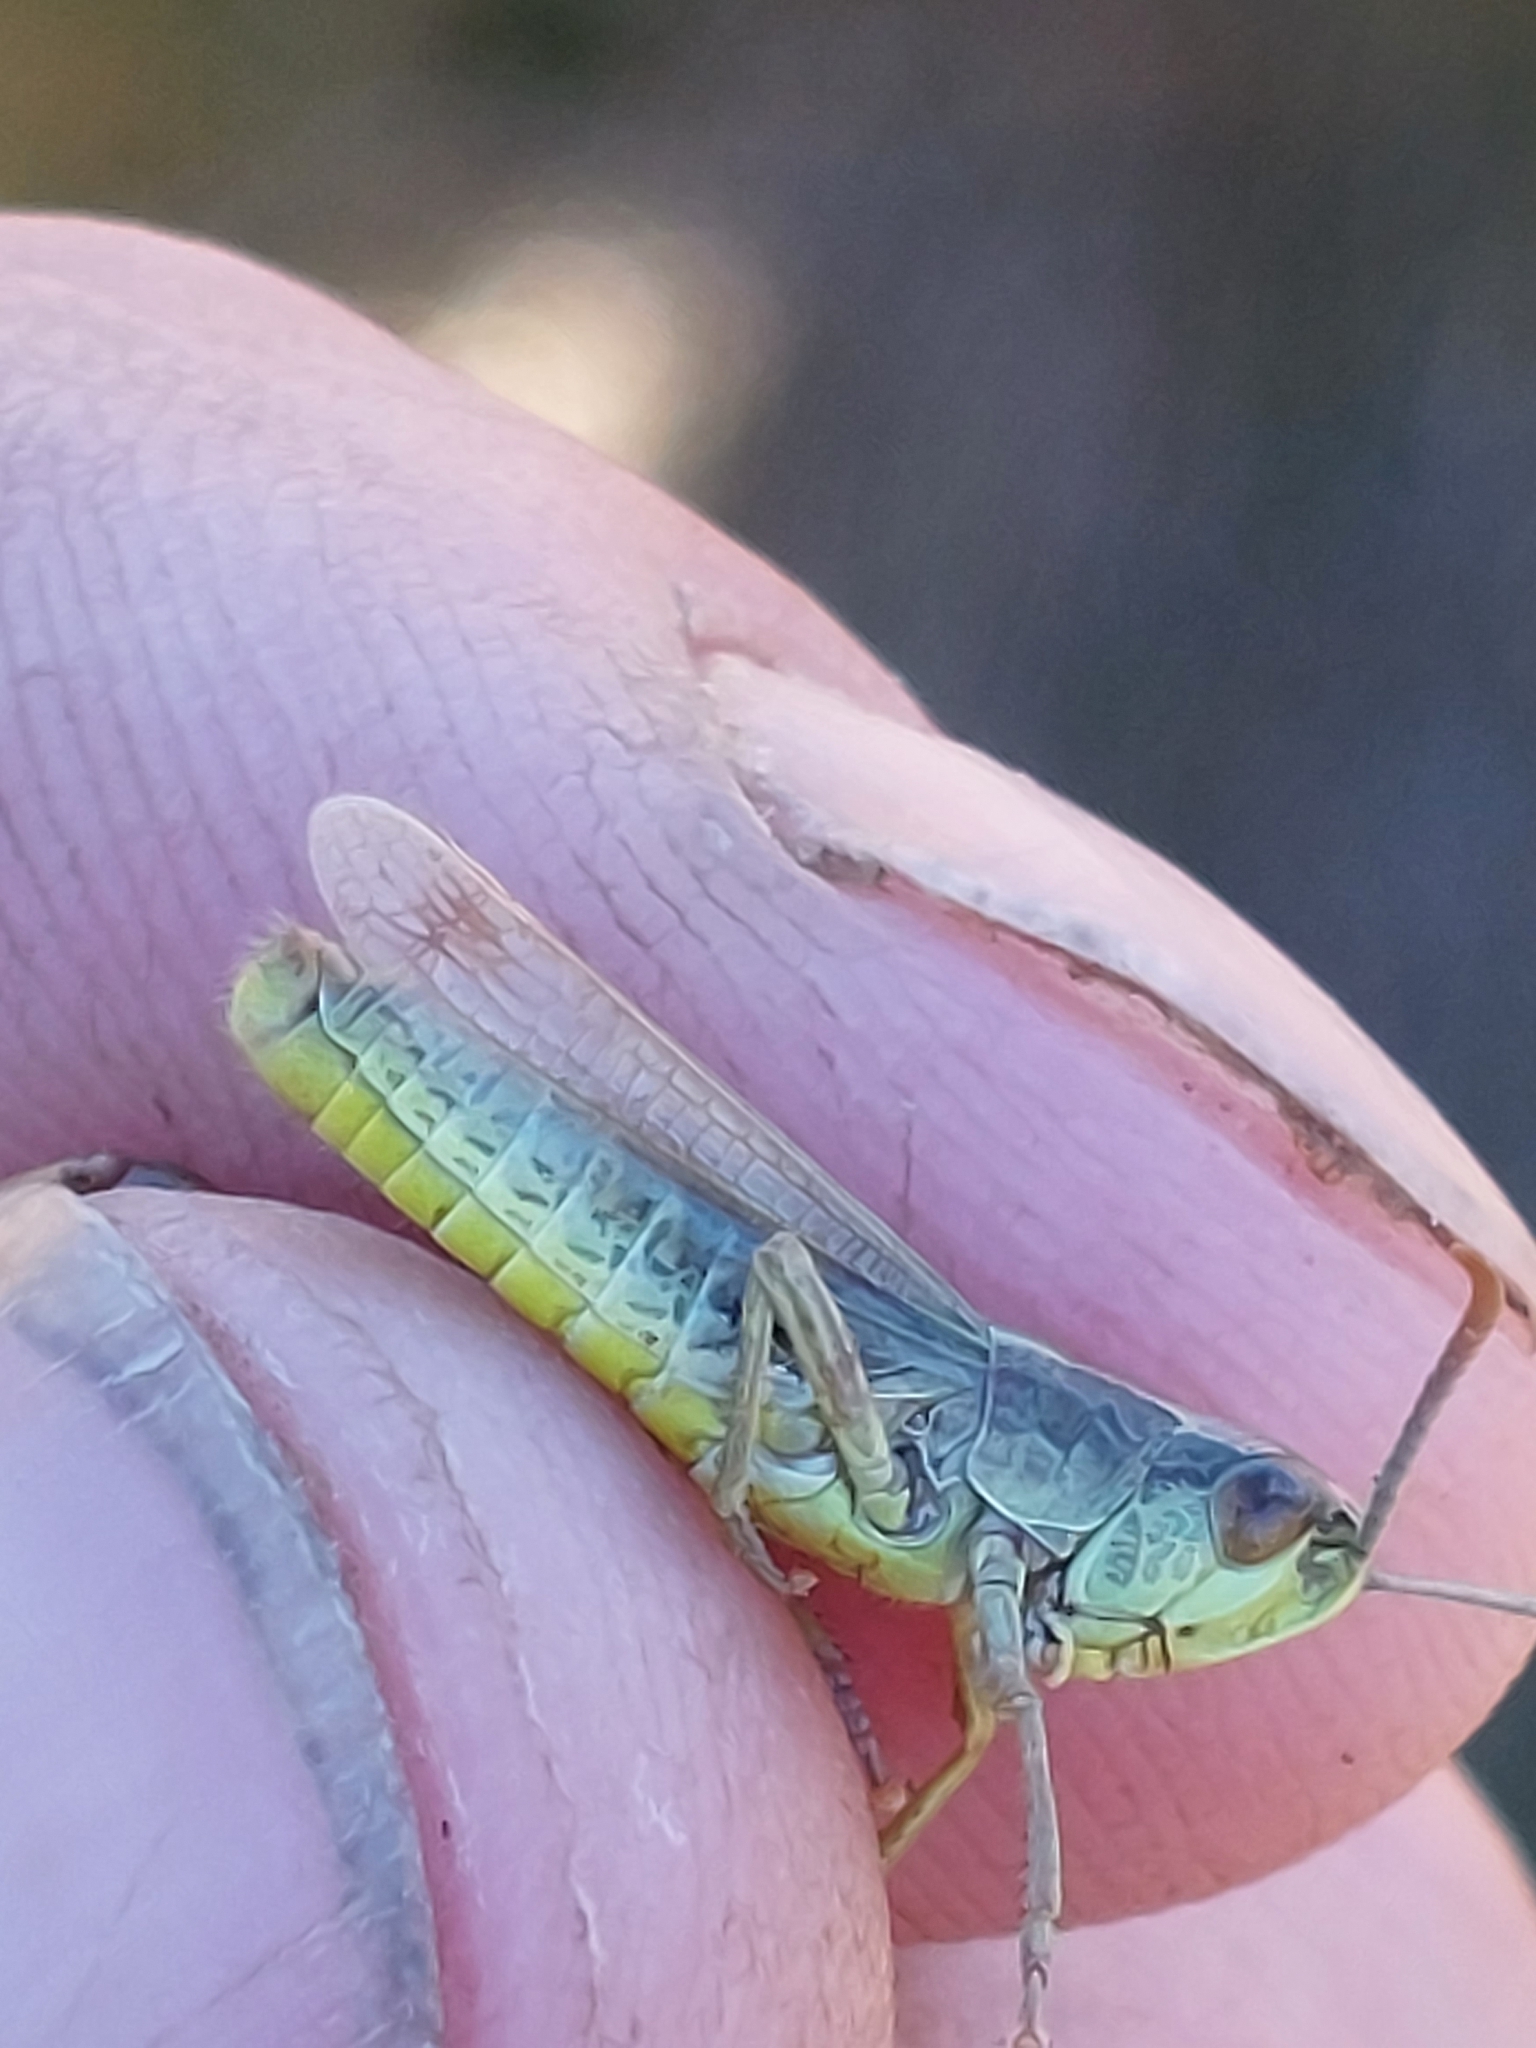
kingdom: Animalia
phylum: Arthropoda
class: Insecta
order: Orthoptera
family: Acrididae
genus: Pseudochorthippus
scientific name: Pseudochorthippus parallelus
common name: Meadow grasshopper
